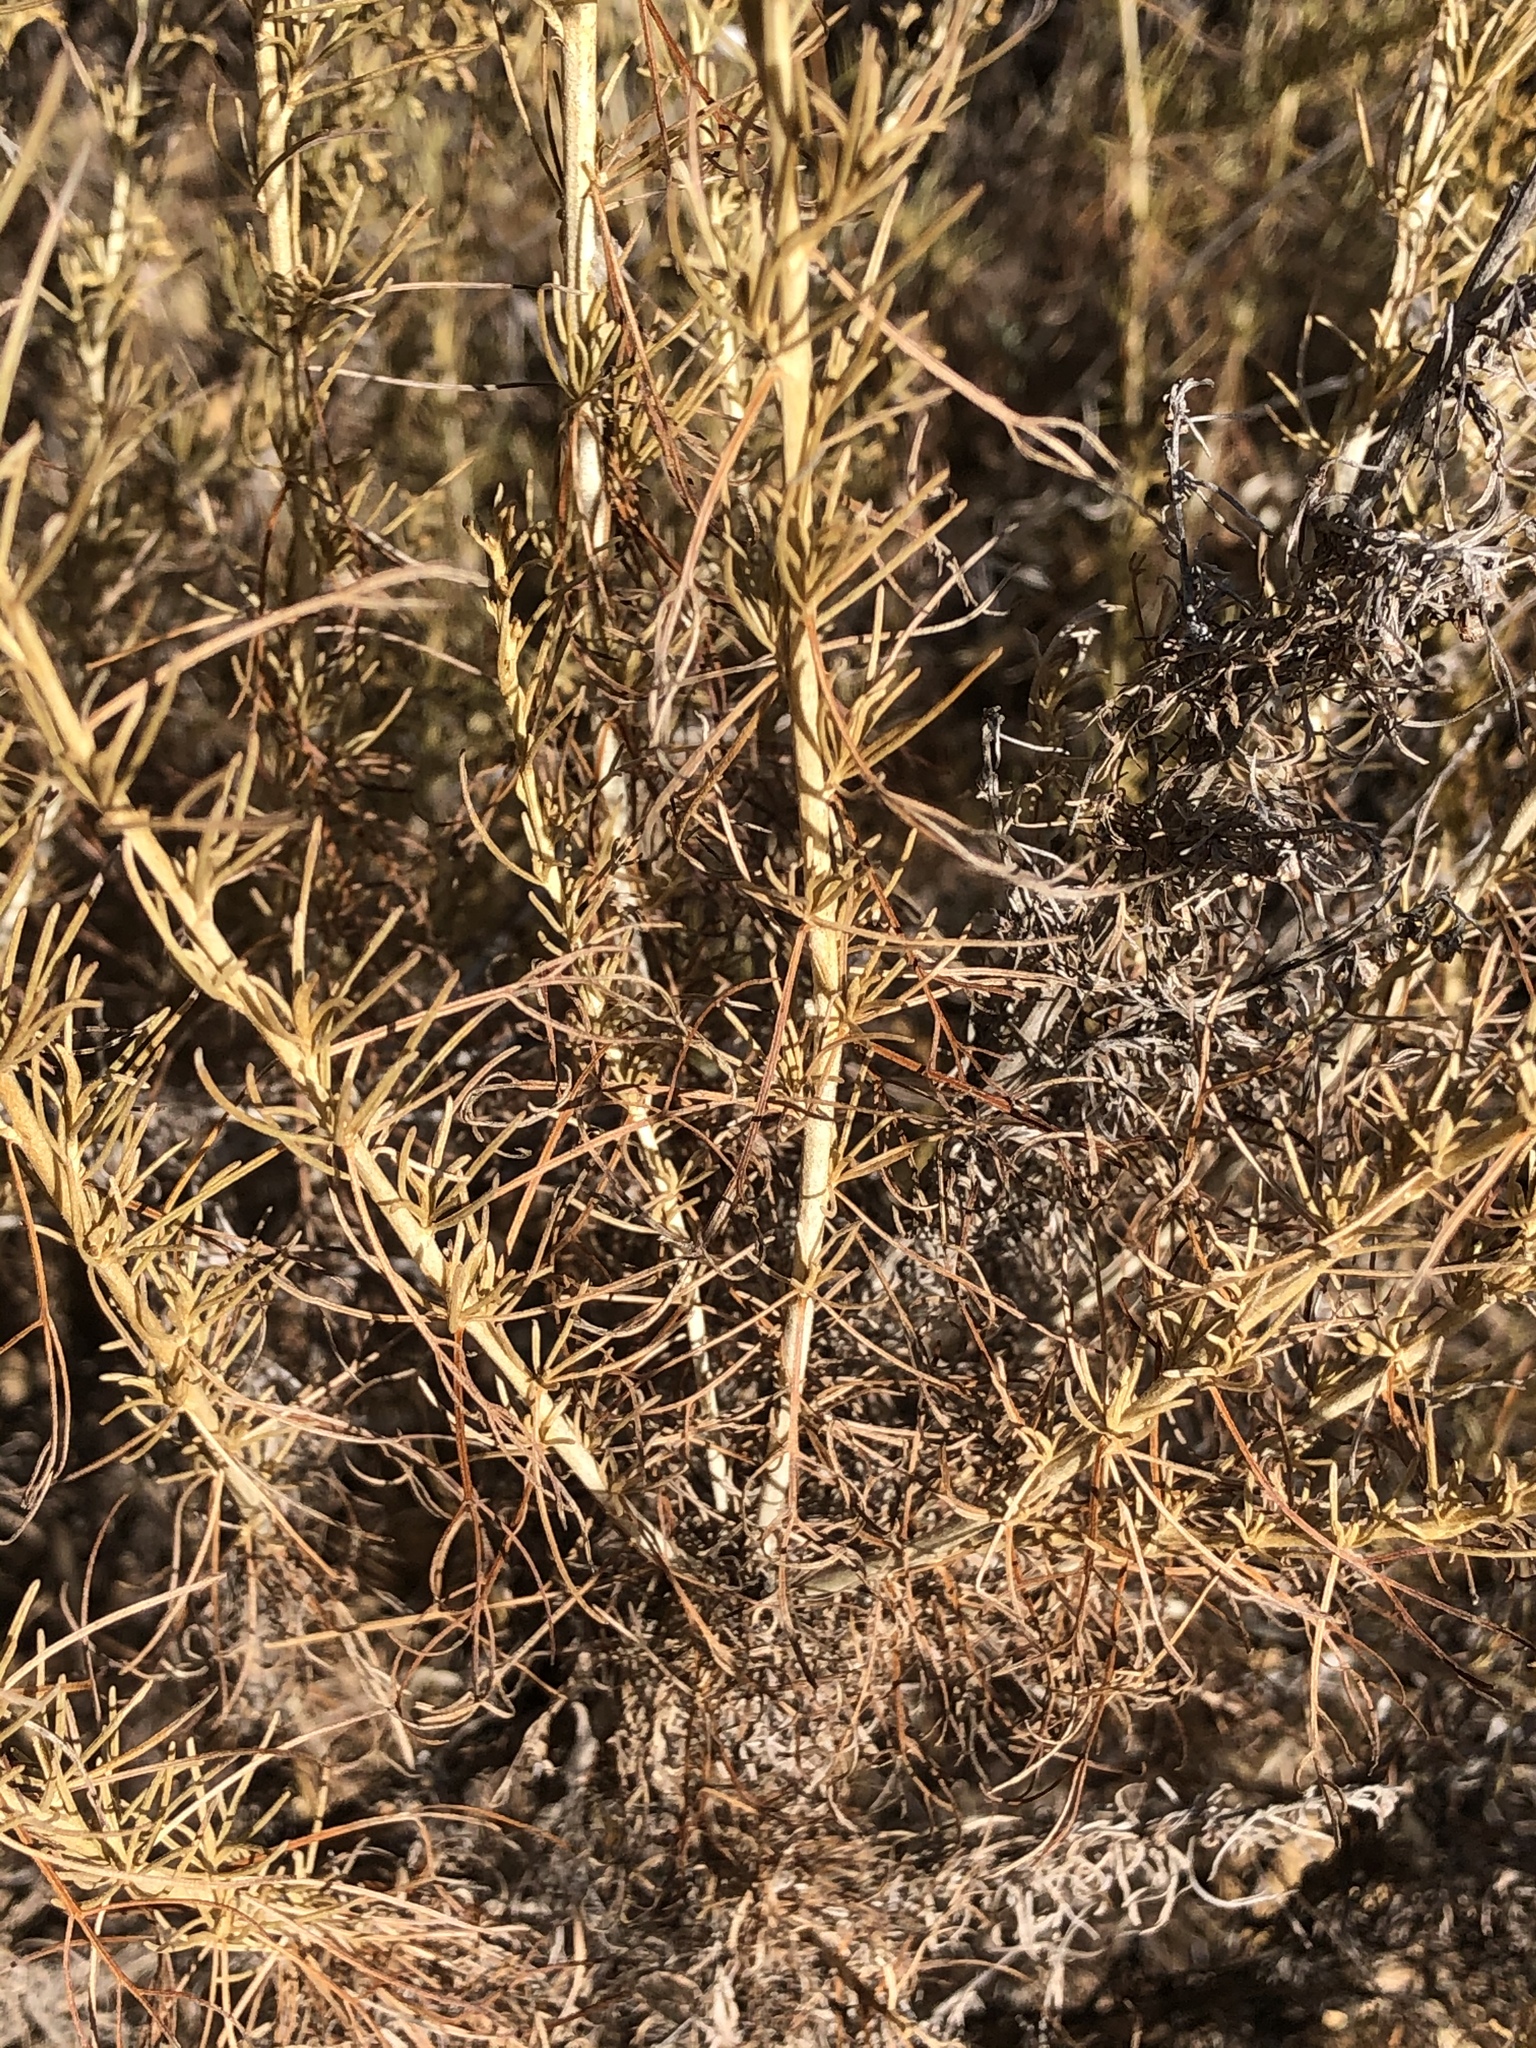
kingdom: Plantae
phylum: Tracheophyta
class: Magnoliopsida
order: Asterales
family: Asteraceae
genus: Artemisia
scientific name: Artemisia californica
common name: California sagebrush
